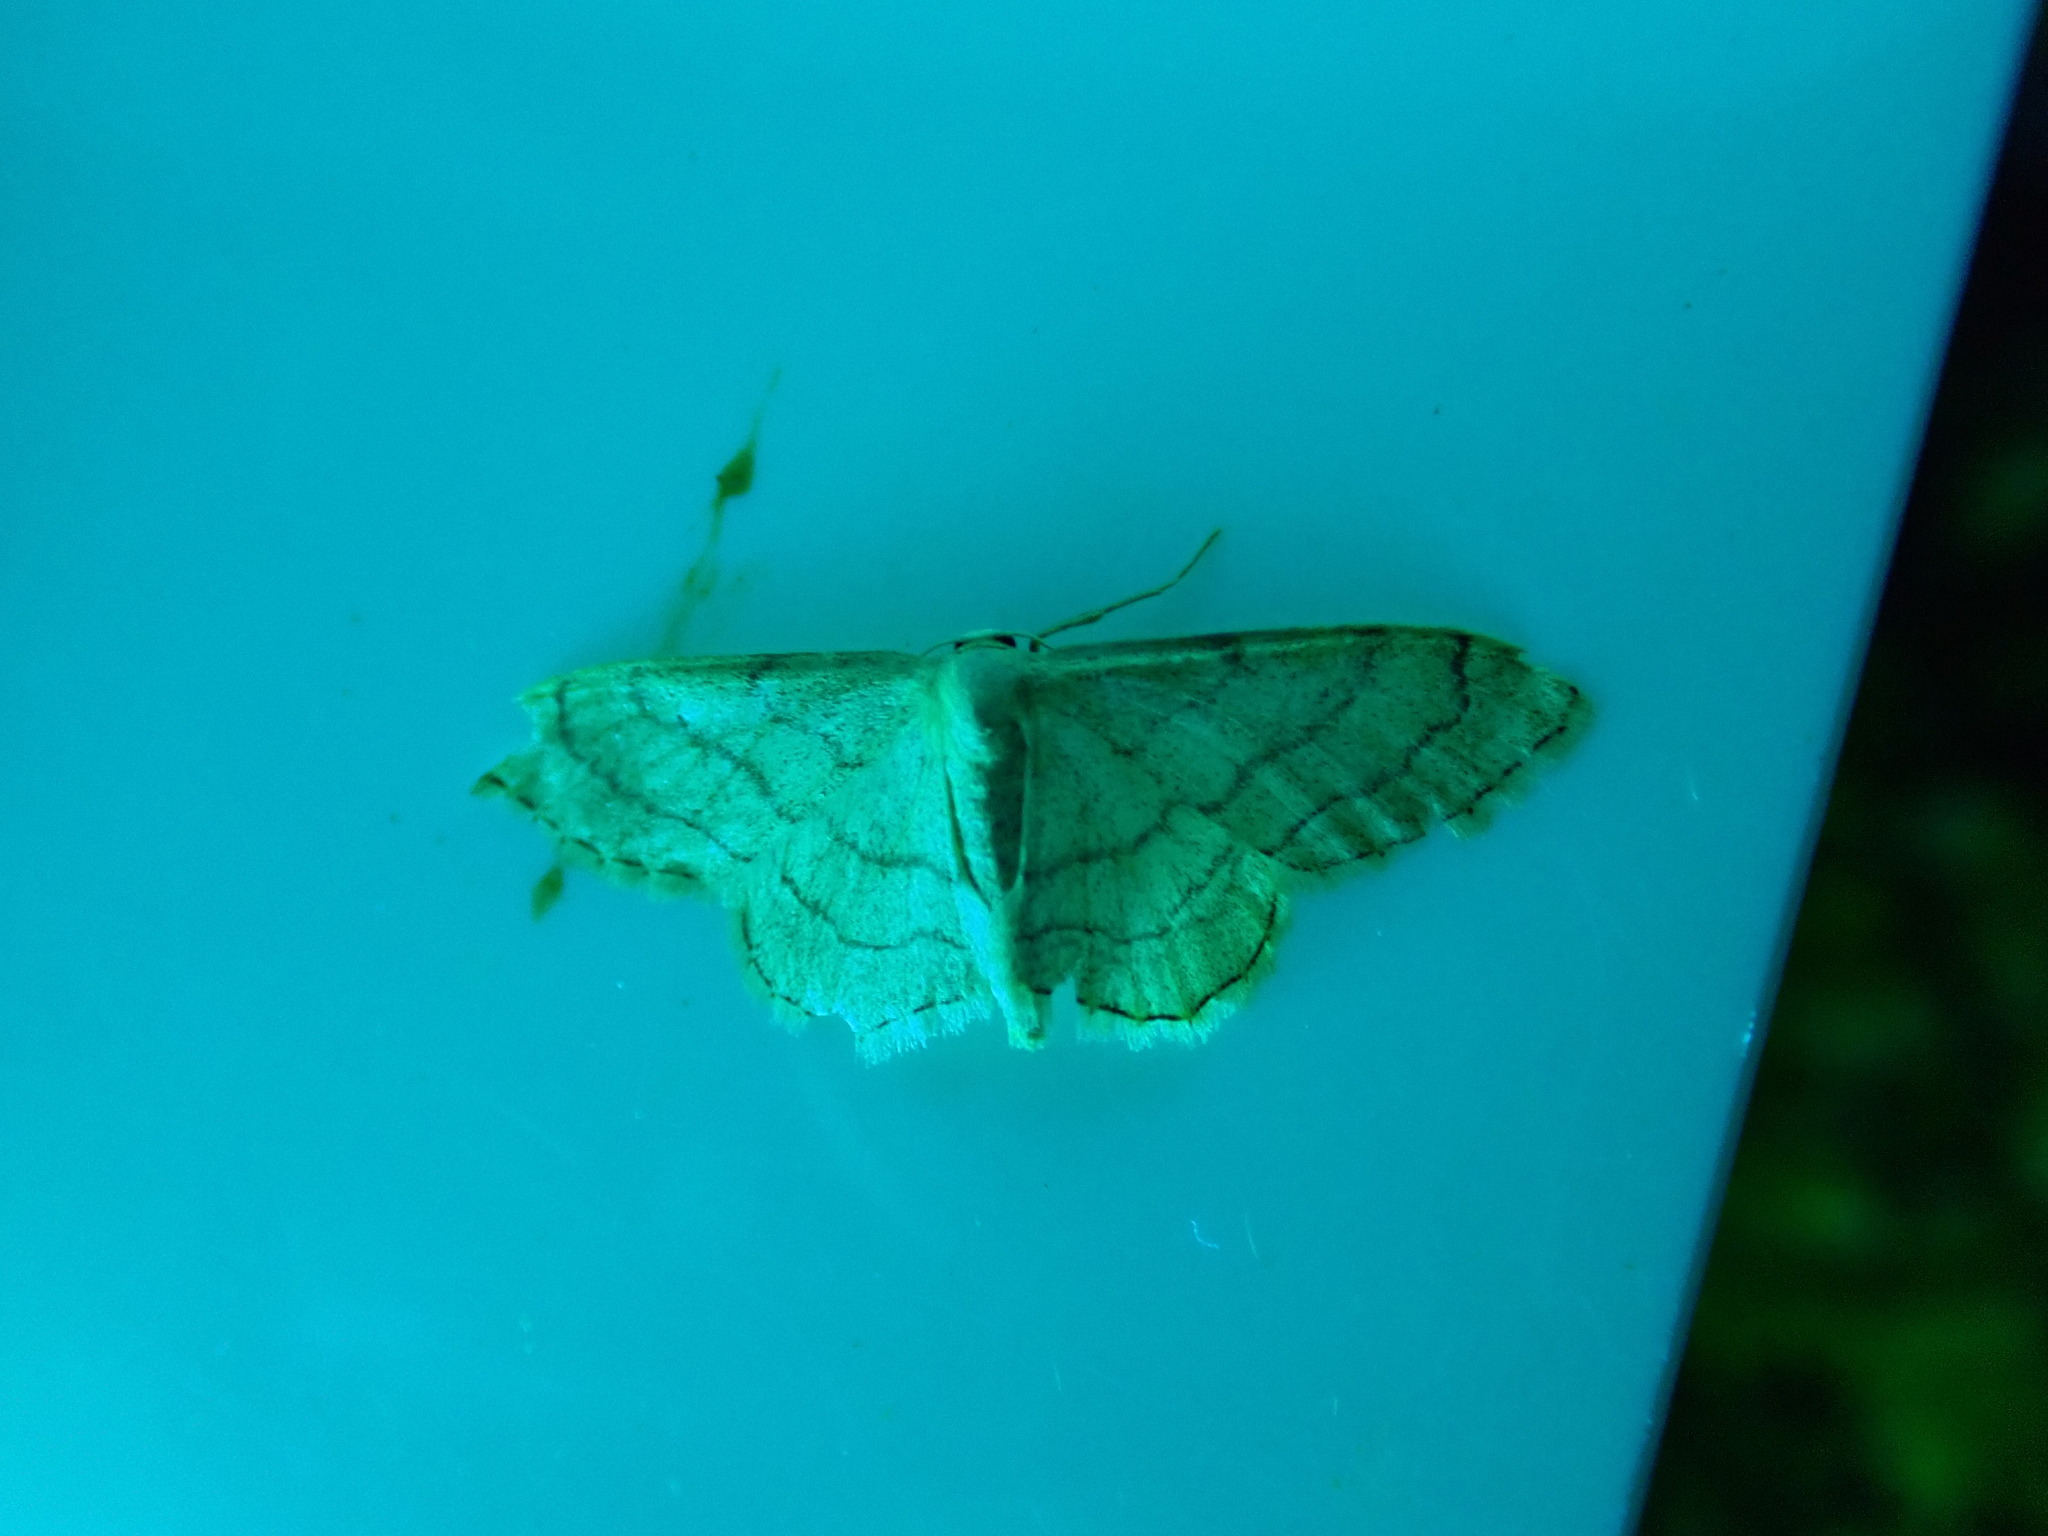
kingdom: Animalia
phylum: Arthropoda
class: Insecta
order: Lepidoptera
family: Geometridae
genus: Idaea
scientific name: Idaea aversata
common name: Riband wave
